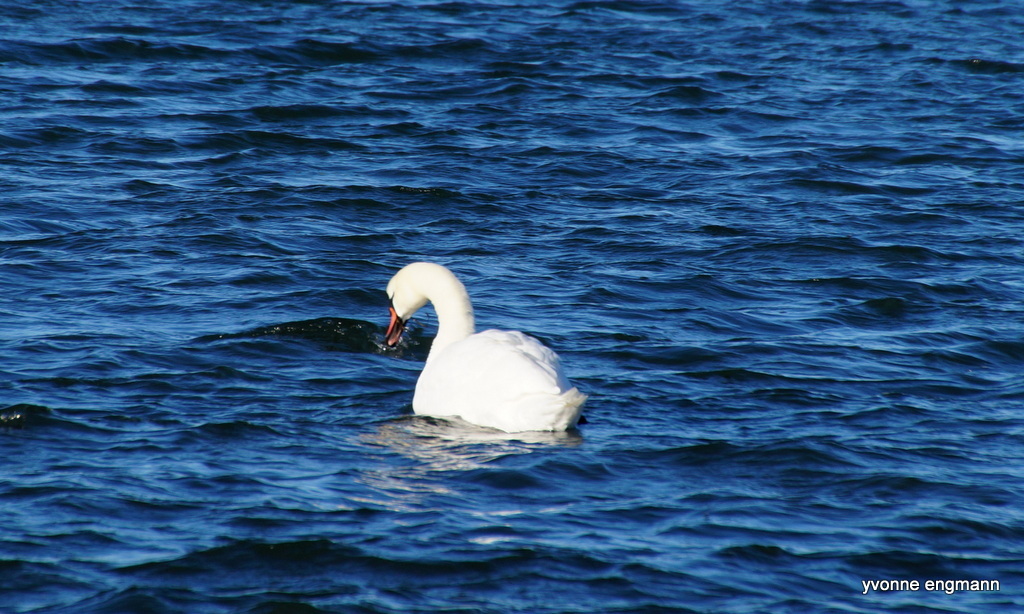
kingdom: Animalia
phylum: Chordata
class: Aves
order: Anseriformes
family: Anatidae
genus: Cygnus
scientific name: Cygnus olor
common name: Mute swan
